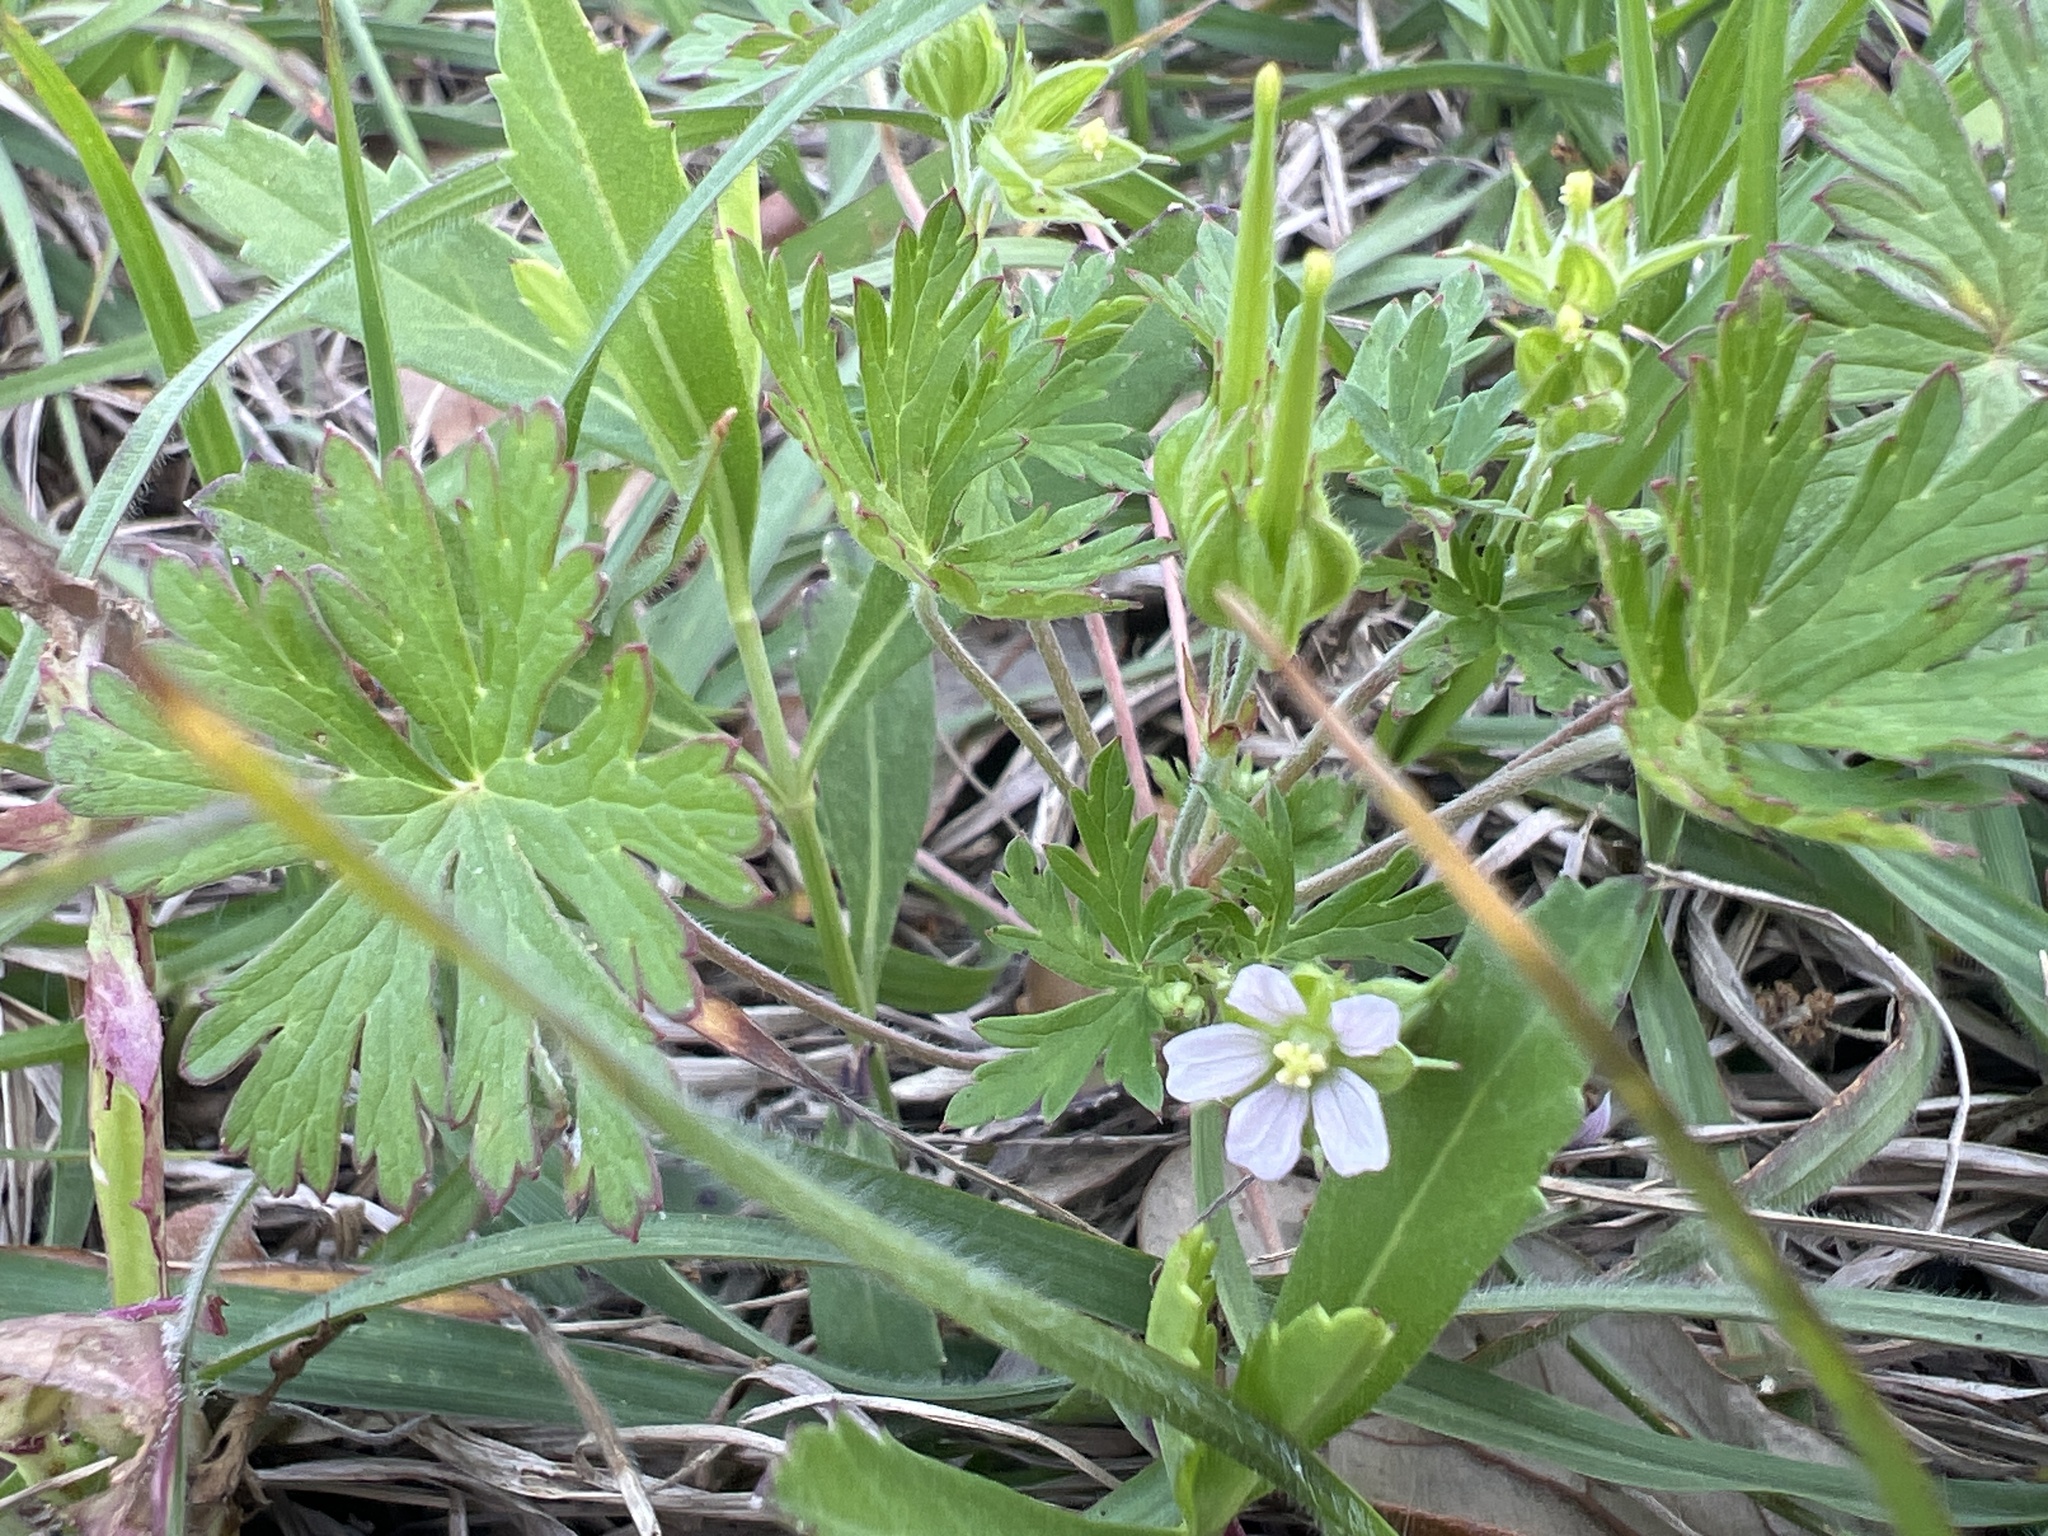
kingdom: Plantae
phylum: Tracheophyta
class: Magnoliopsida
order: Geraniales
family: Geraniaceae
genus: Geranium
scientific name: Geranium carolinianum
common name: Carolina crane's-bill
